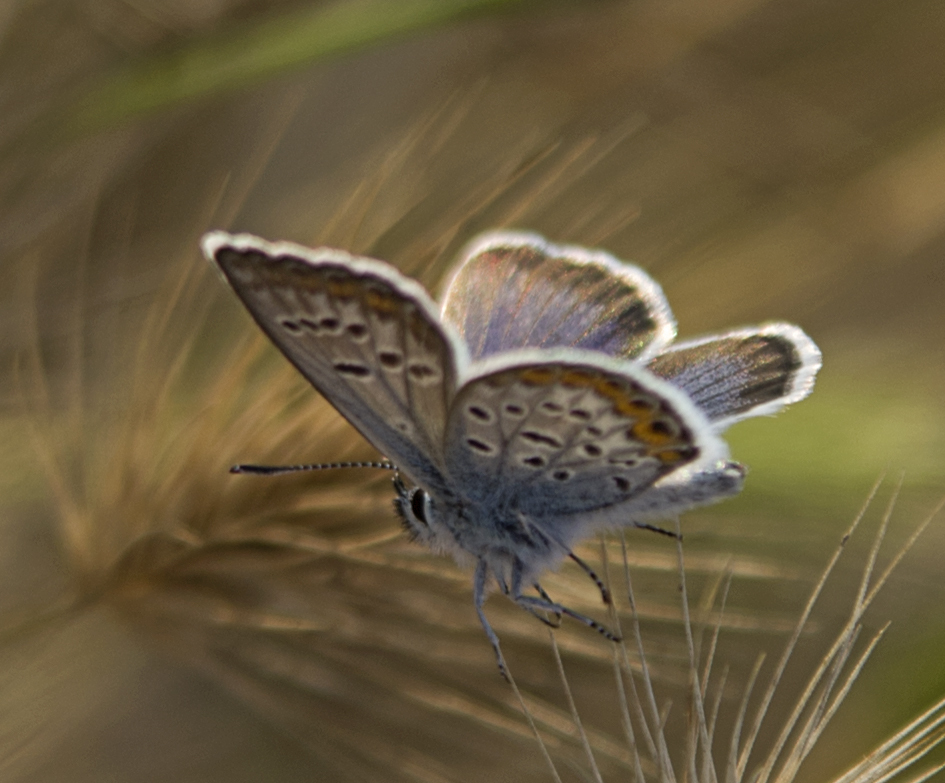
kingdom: Animalia
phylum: Arthropoda
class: Insecta
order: Lepidoptera
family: Lycaenidae
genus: Plebejus
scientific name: Plebejus argus
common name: Silver-studded blue
